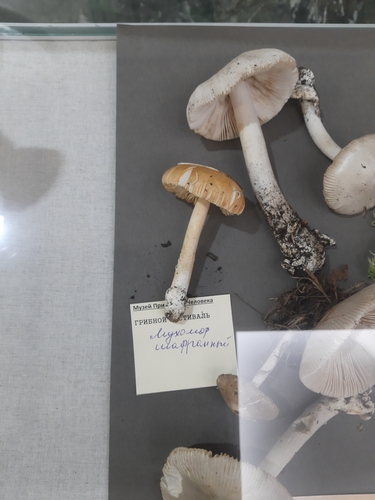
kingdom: Fungi
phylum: Basidiomycota
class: Agaricomycetes
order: Agaricales
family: Amanitaceae
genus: Amanita
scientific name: Amanita vaginata
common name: Grisette
